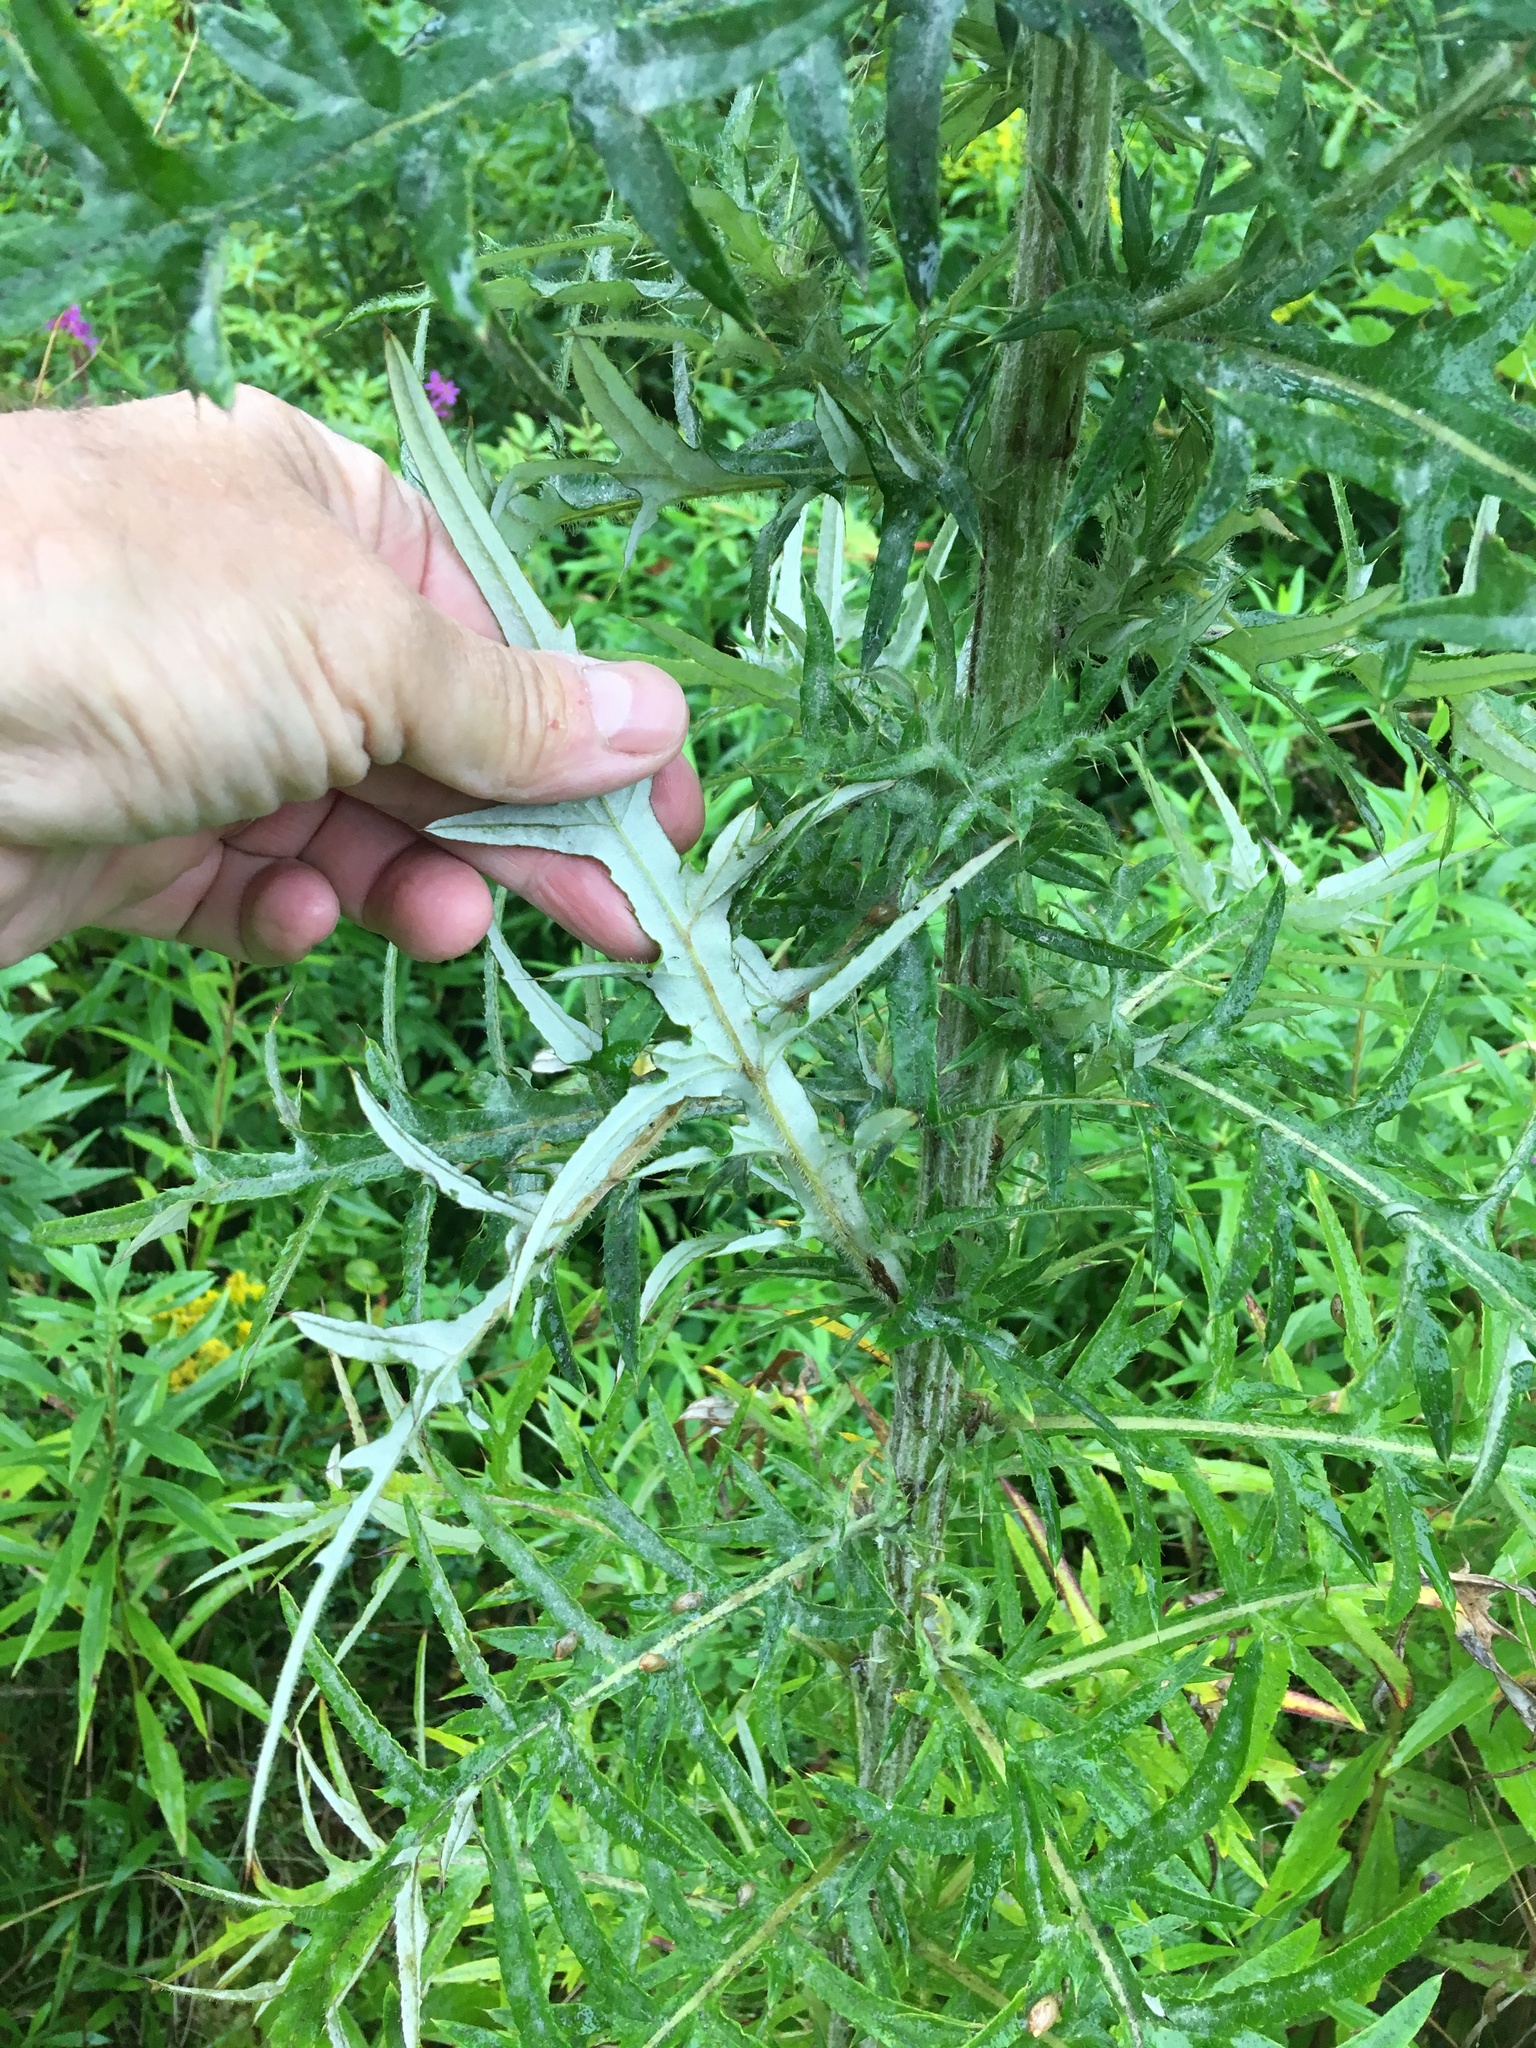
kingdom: Plantae
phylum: Tracheophyta
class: Magnoliopsida
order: Asterales
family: Asteraceae
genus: Cirsium
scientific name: Cirsium discolor
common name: Field thistle
